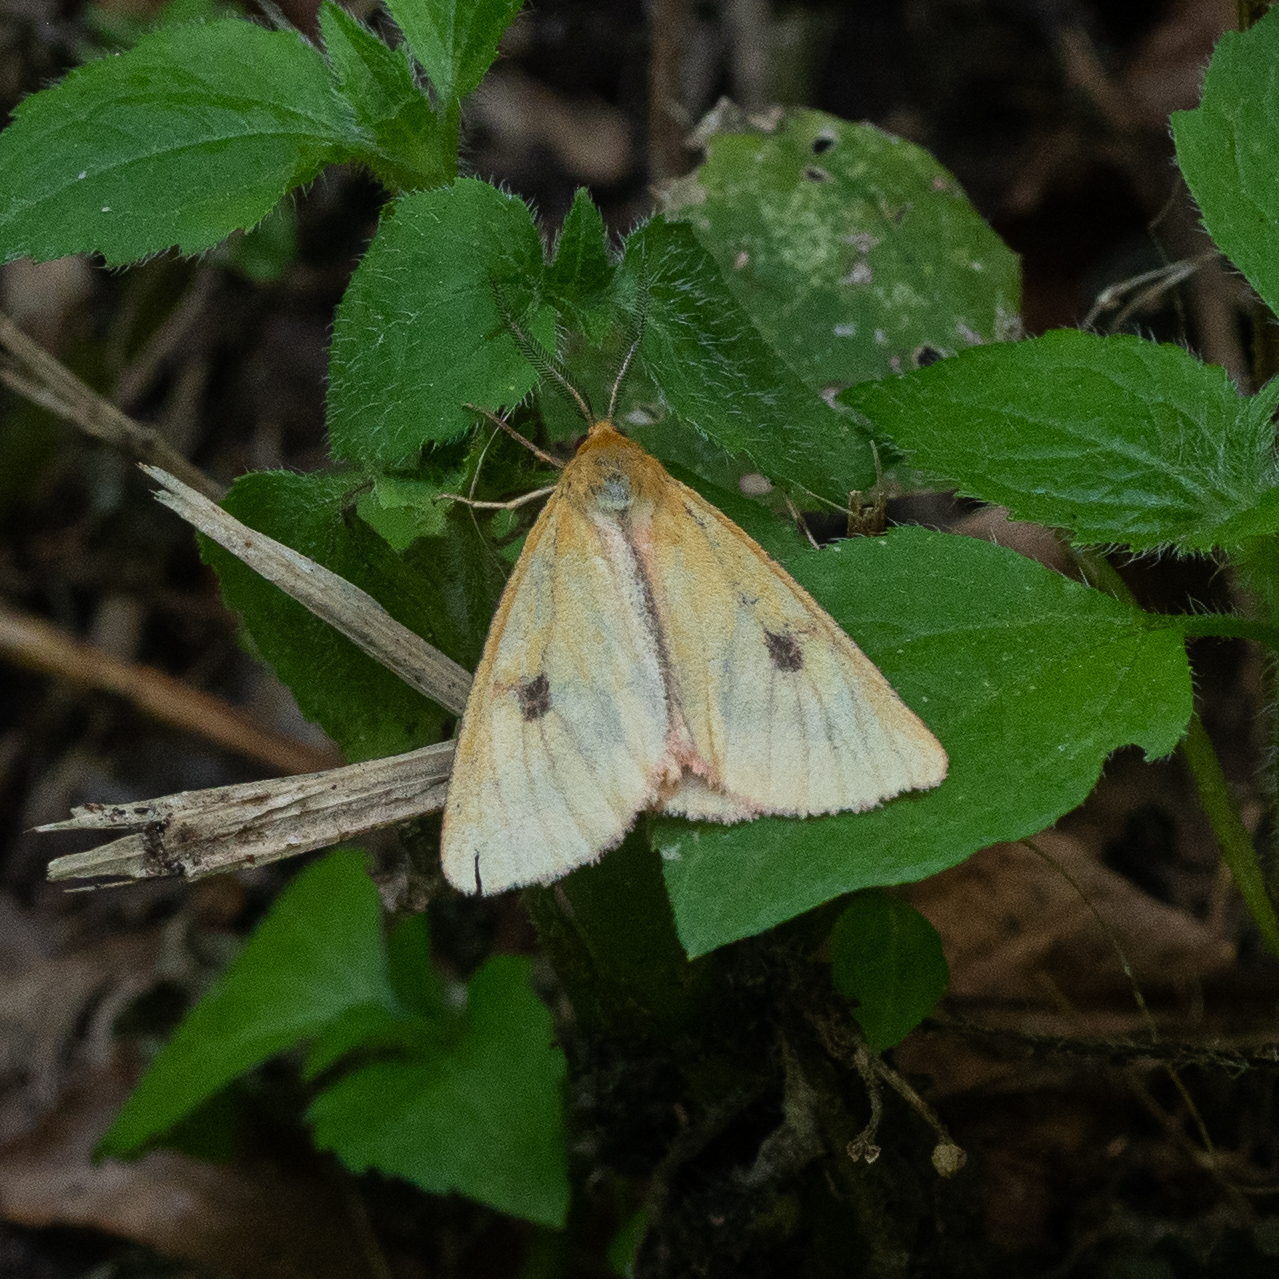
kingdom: Animalia
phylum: Arthropoda
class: Insecta
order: Lepidoptera
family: Erebidae
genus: Diacrisia
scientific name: Diacrisia sannio
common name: Clouded buff
